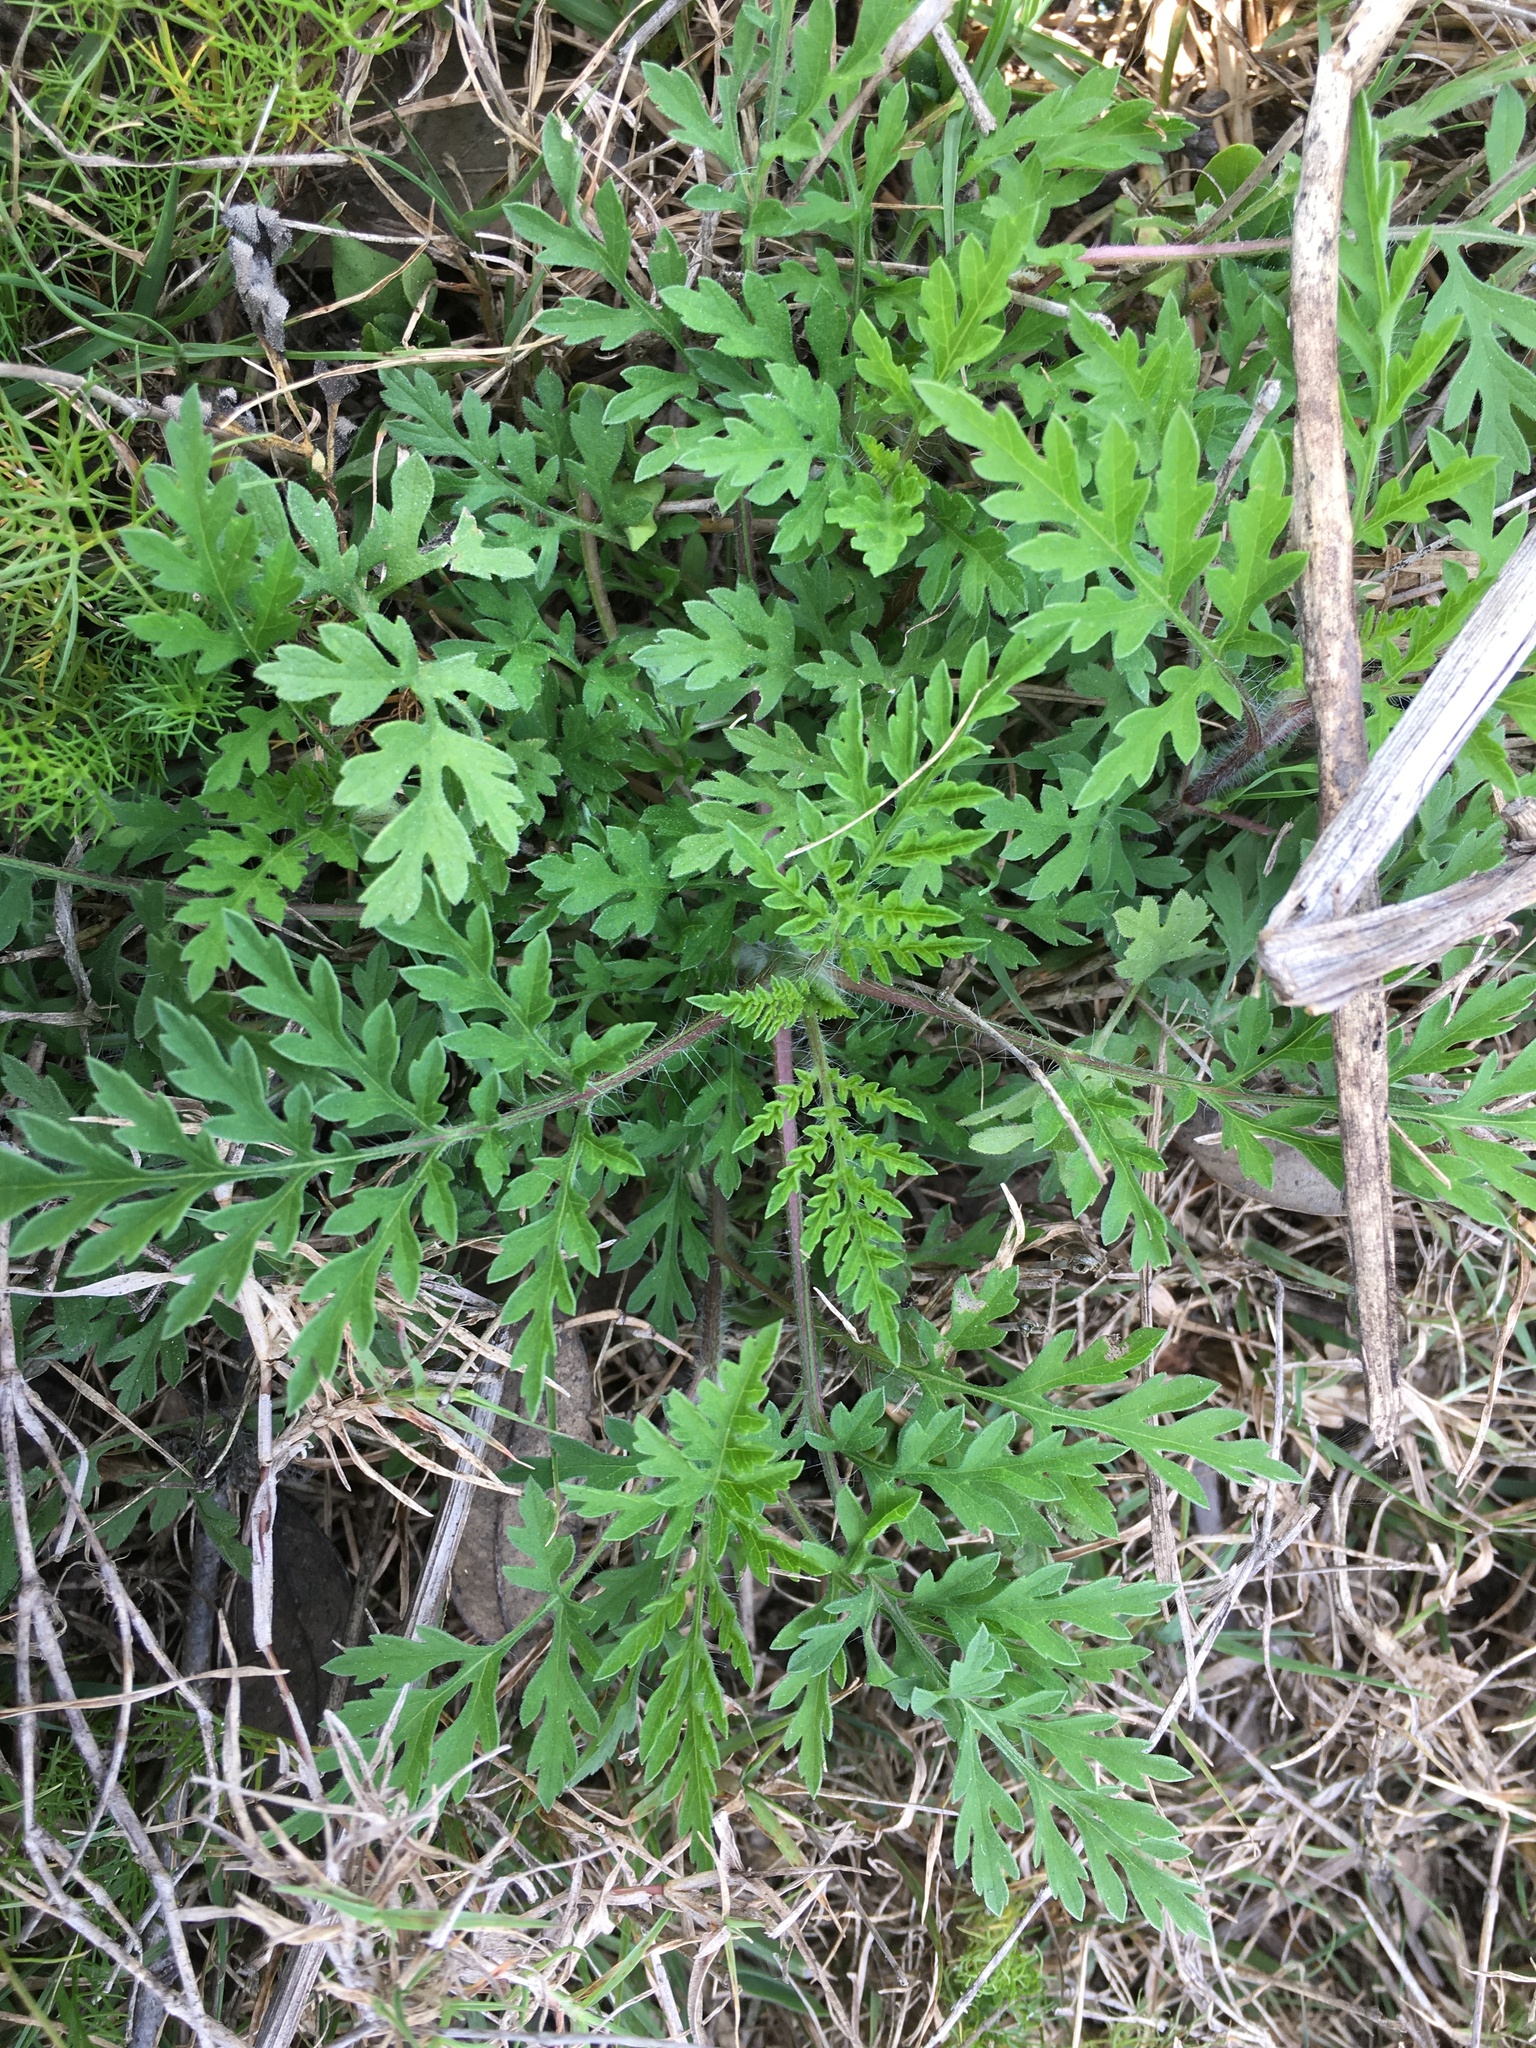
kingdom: Plantae
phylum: Tracheophyta
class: Magnoliopsida
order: Asterales
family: Asteraceae
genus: Ambrosia
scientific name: Ambrosia artemisiifolia
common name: Annual ragweed
